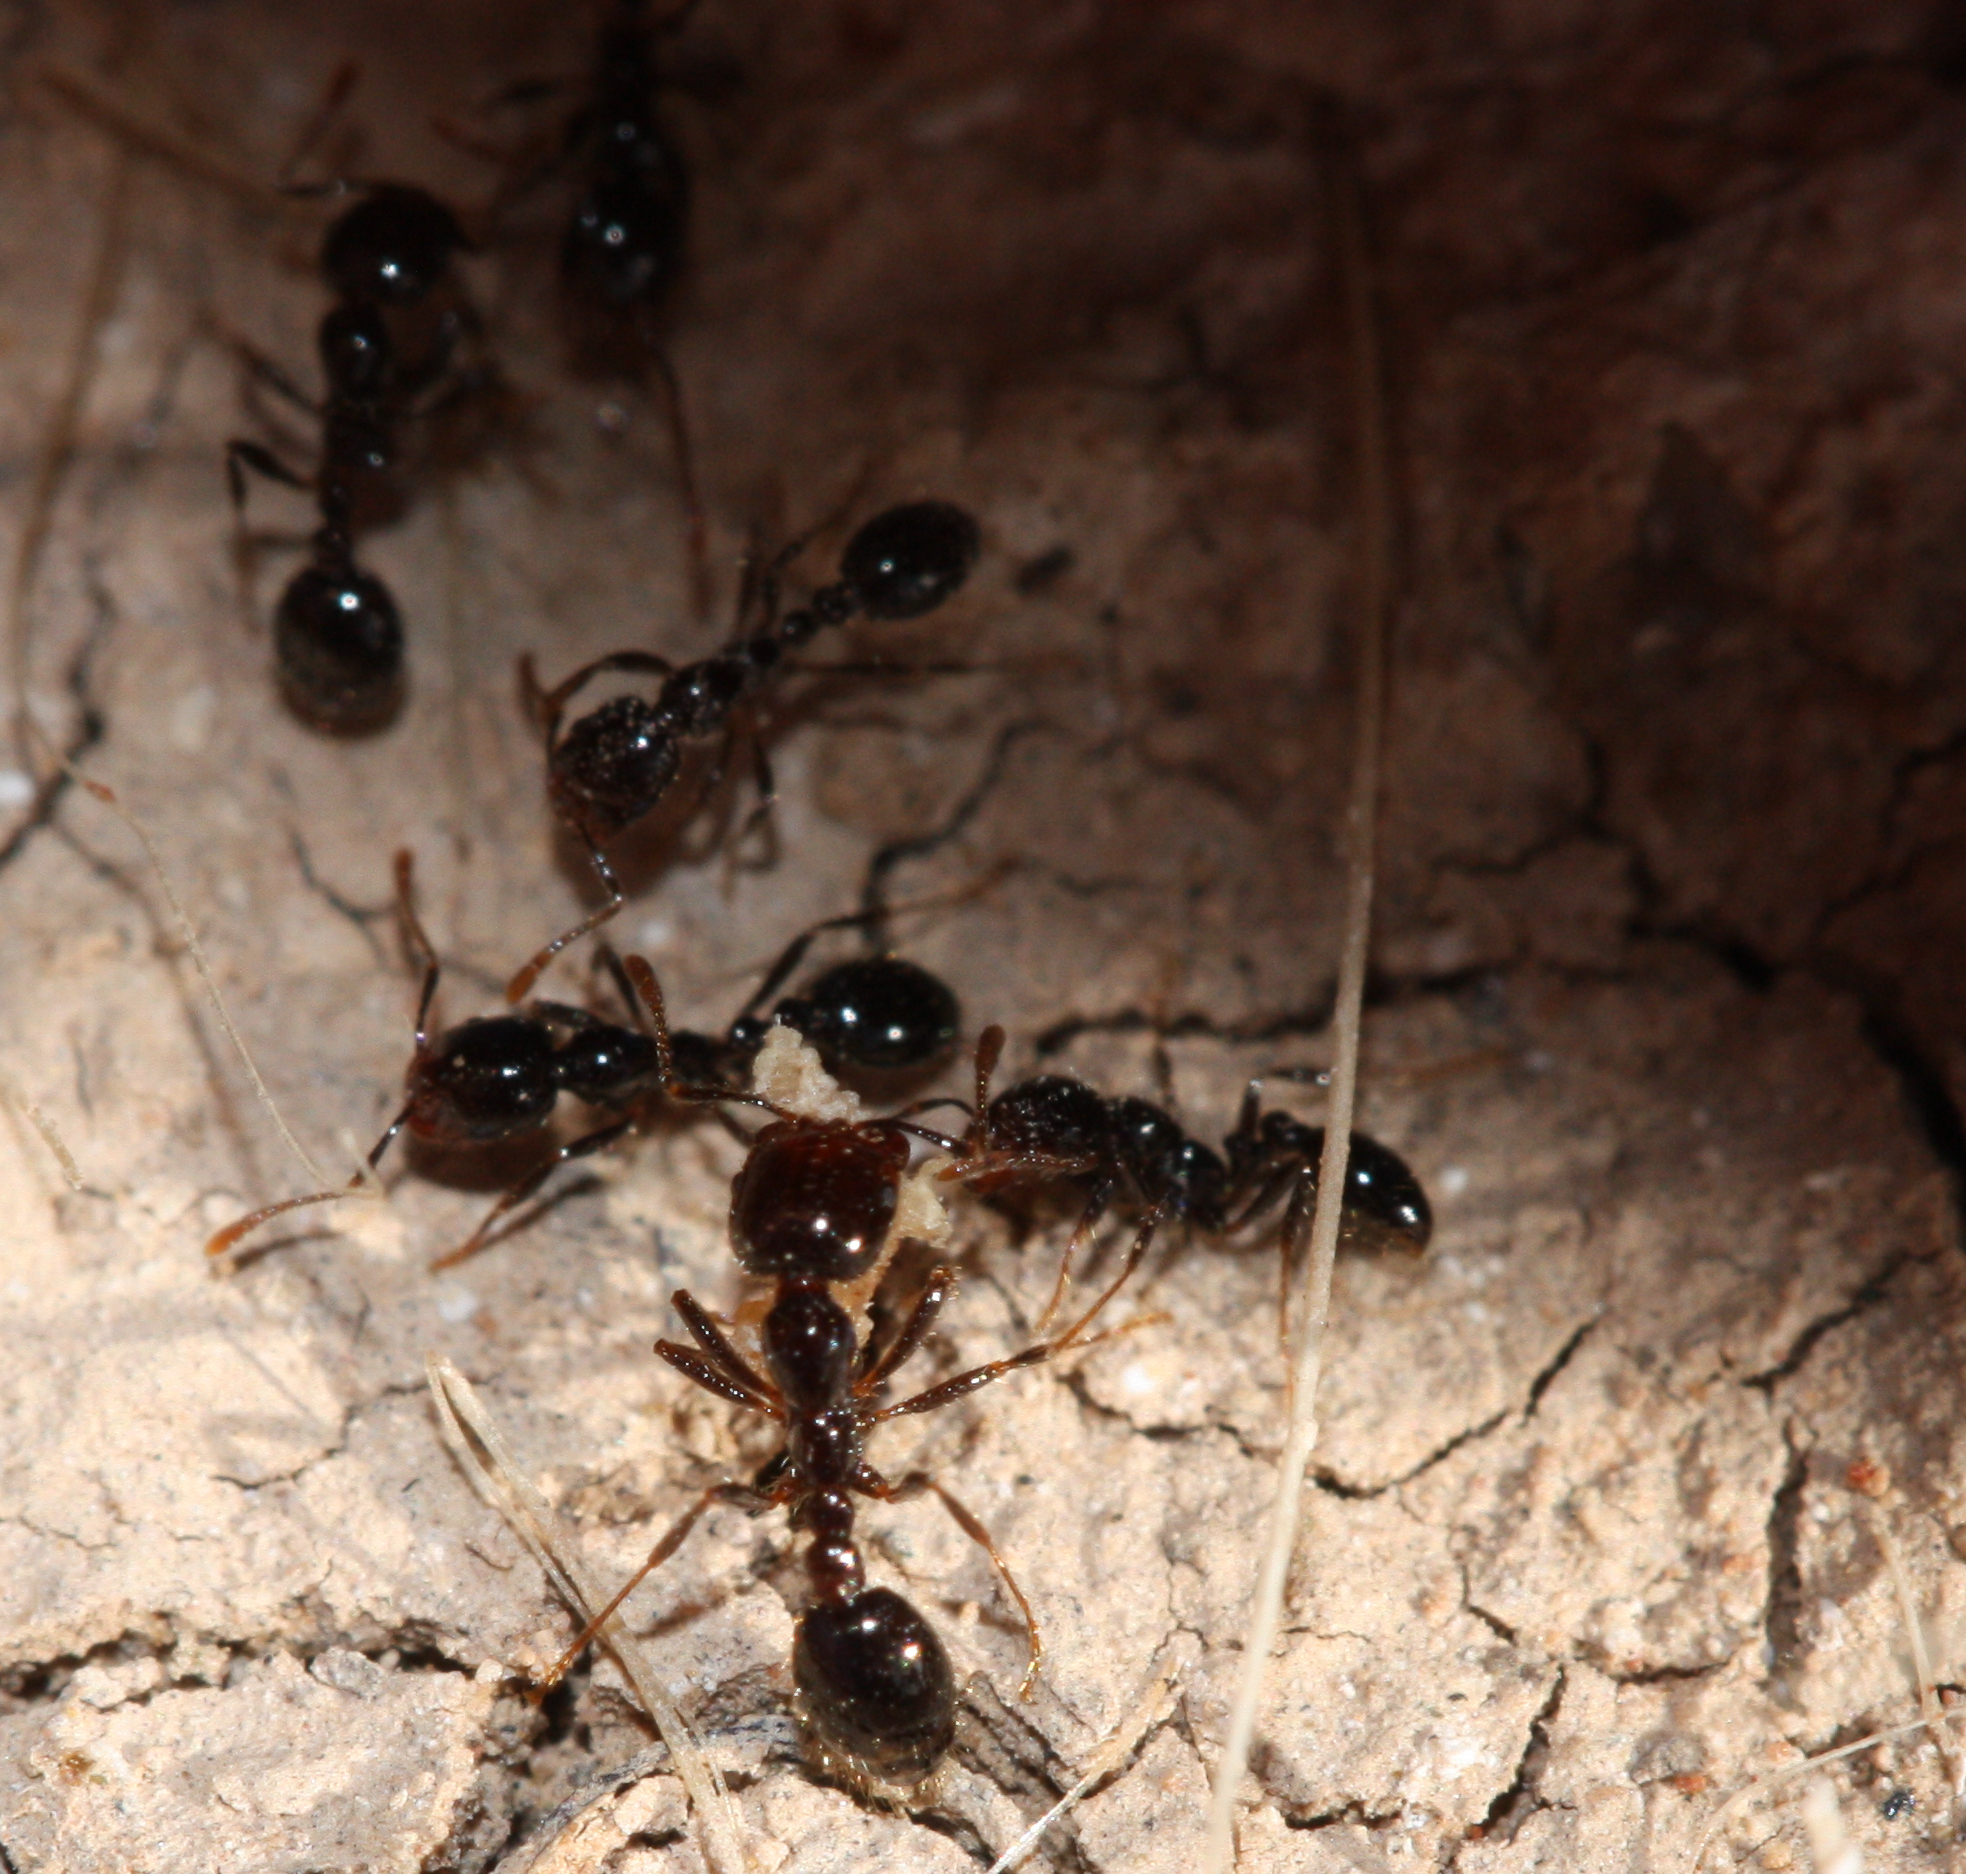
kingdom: Animalia
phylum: Arthropoda
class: Insecta
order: Hymenoptera
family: Formicidae
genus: Solenopsis
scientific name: Solenopsis xyloni
